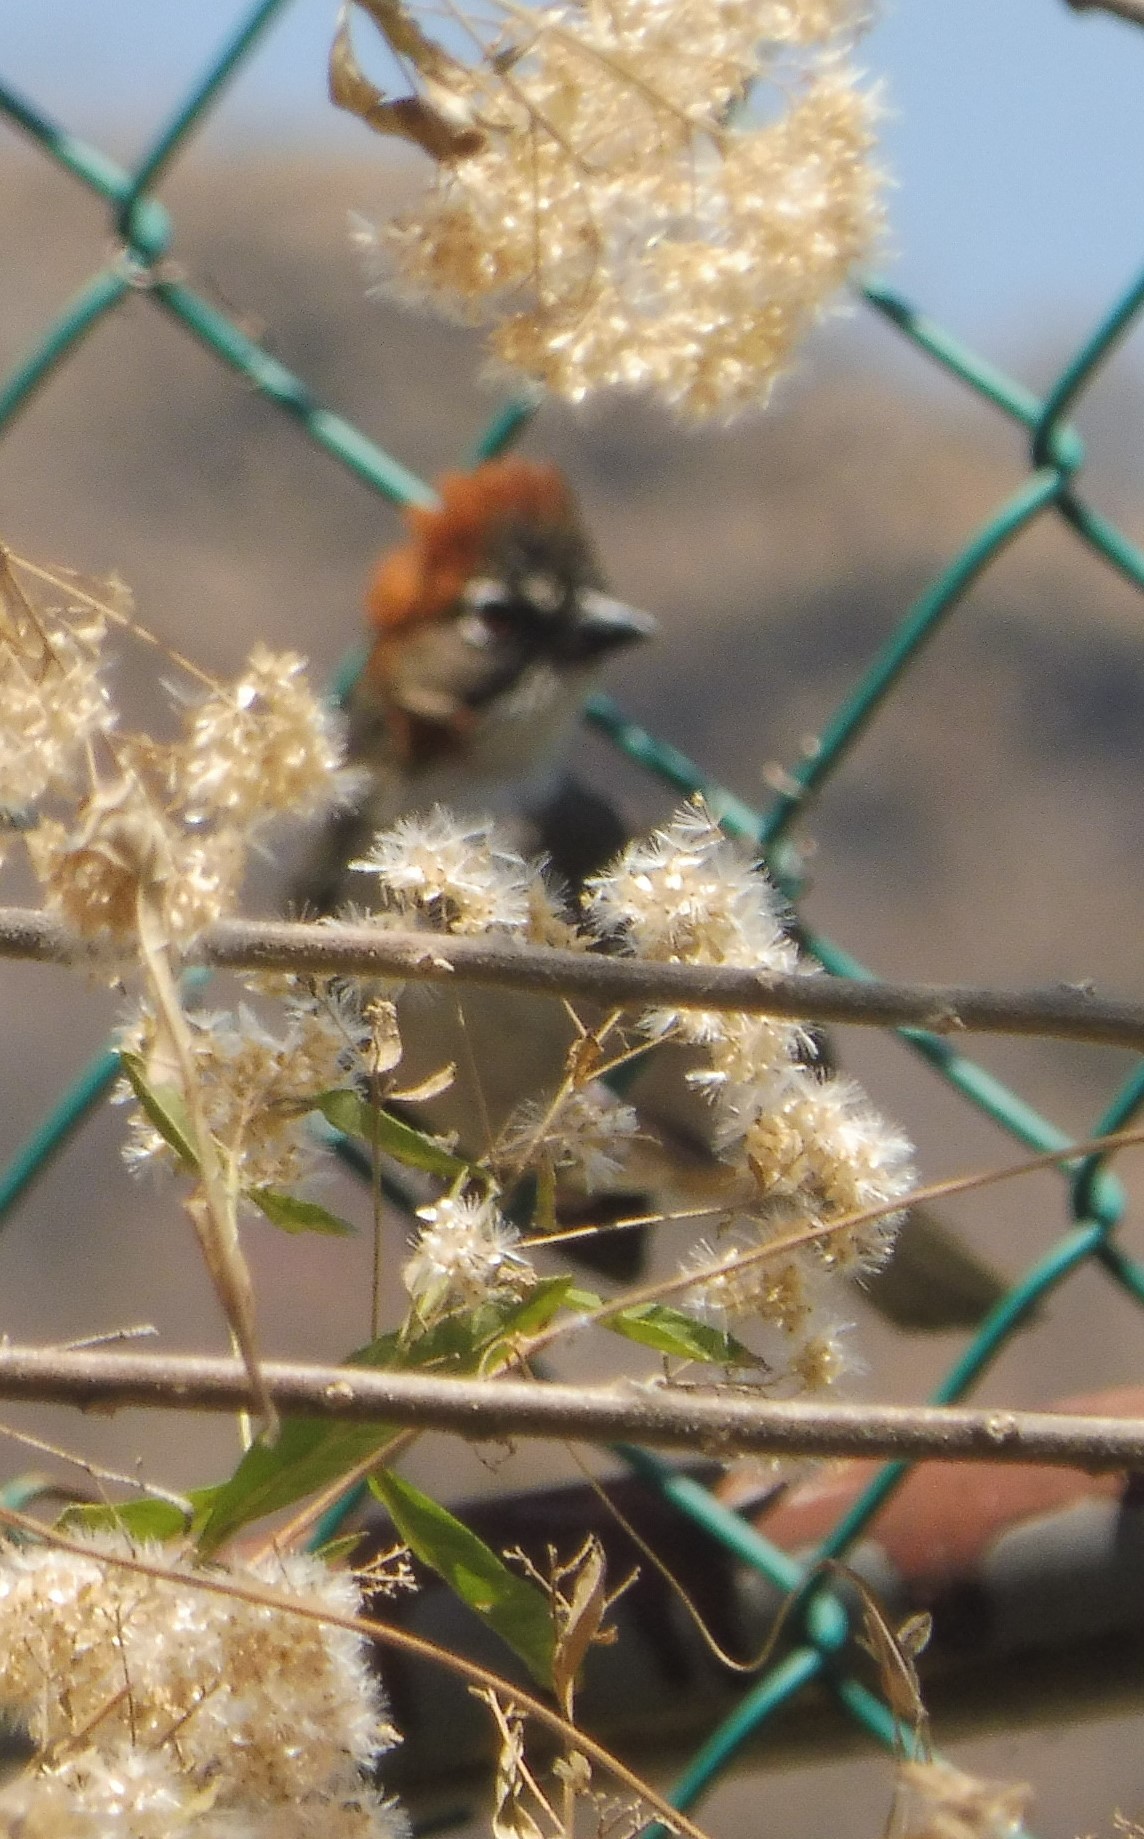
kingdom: Animalia
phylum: Chordata
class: Aves
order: Passeriformes
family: Passerellidae
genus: Melozone
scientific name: Melozone kieneri
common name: Rusty-crowned ground-sparrow
